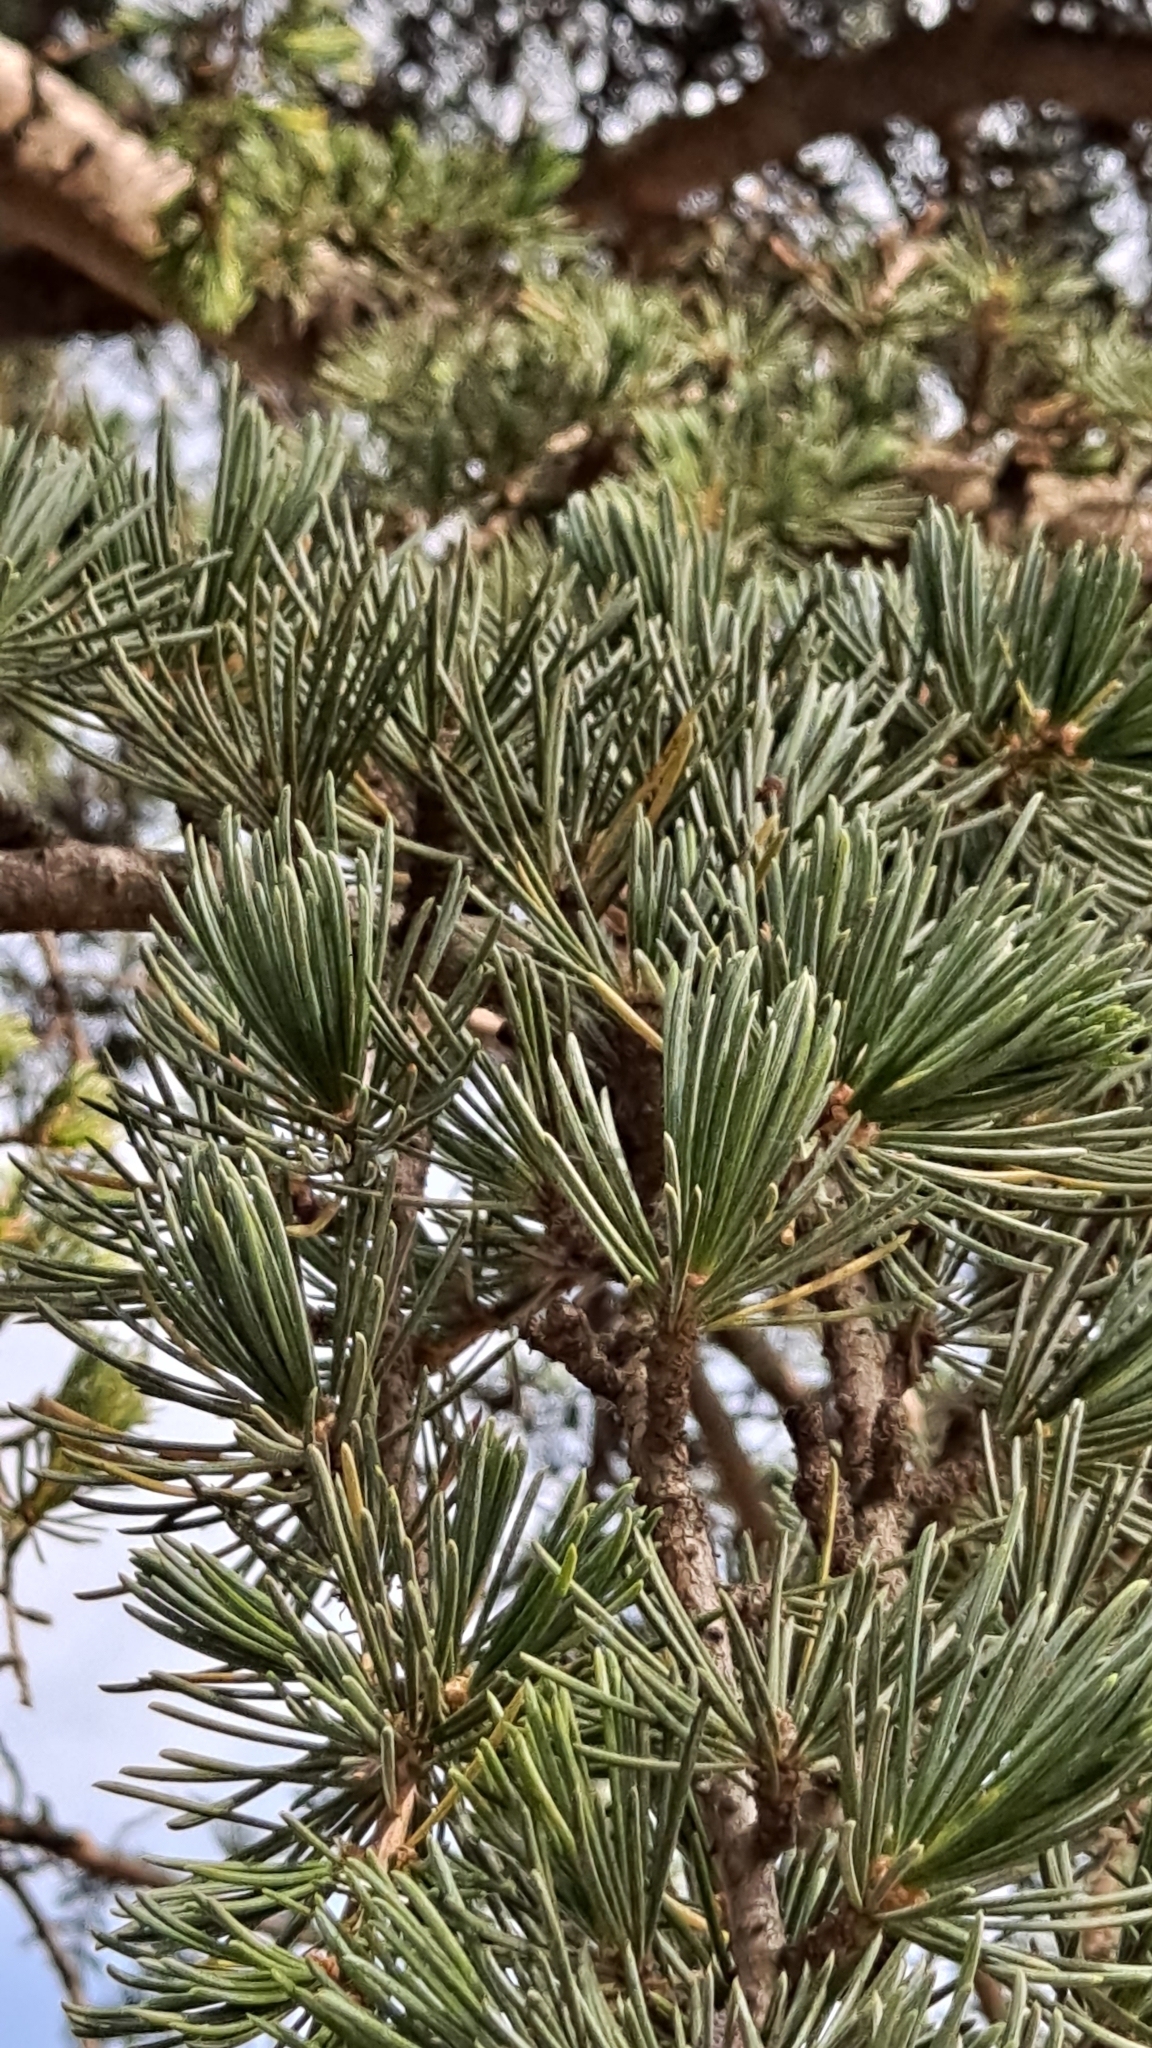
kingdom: Plantae
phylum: Tracheophyta
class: Pinopsida
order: Pinales
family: Pinaceae
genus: Cedrus
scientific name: Cedrus atlantica
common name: Atlas cedar
